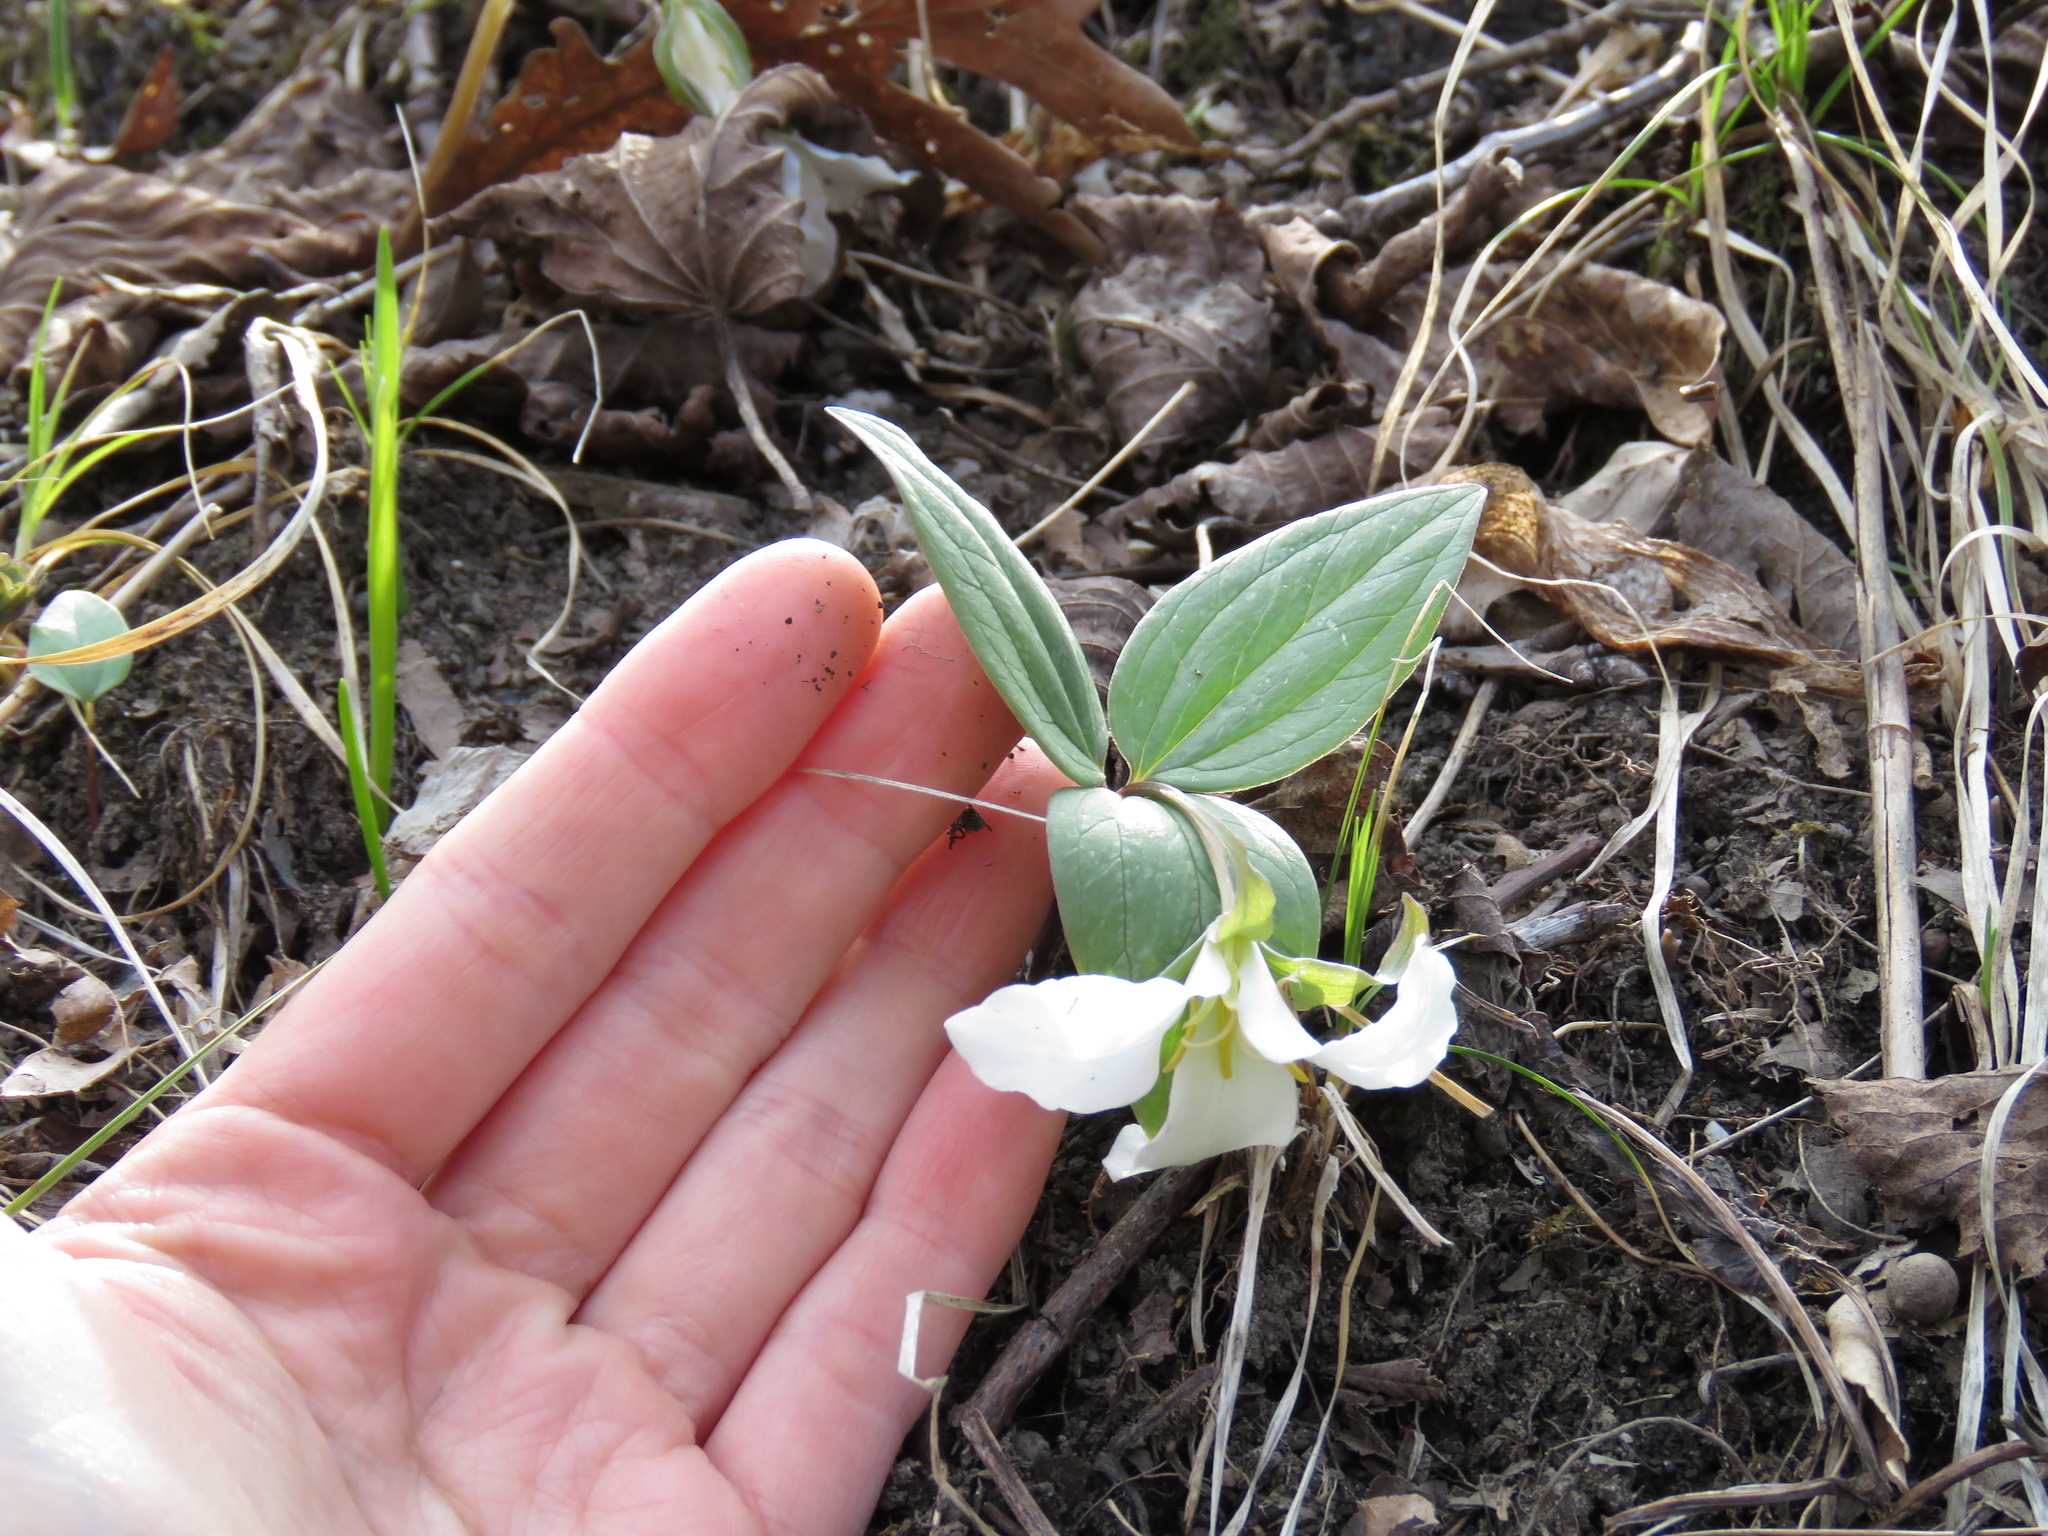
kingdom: Plantae
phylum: Tracheophyta
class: Liliopsida
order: Liliales
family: Melanthiaceae
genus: Trillium
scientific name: Trillium nivale
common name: Dwarf white trillium
